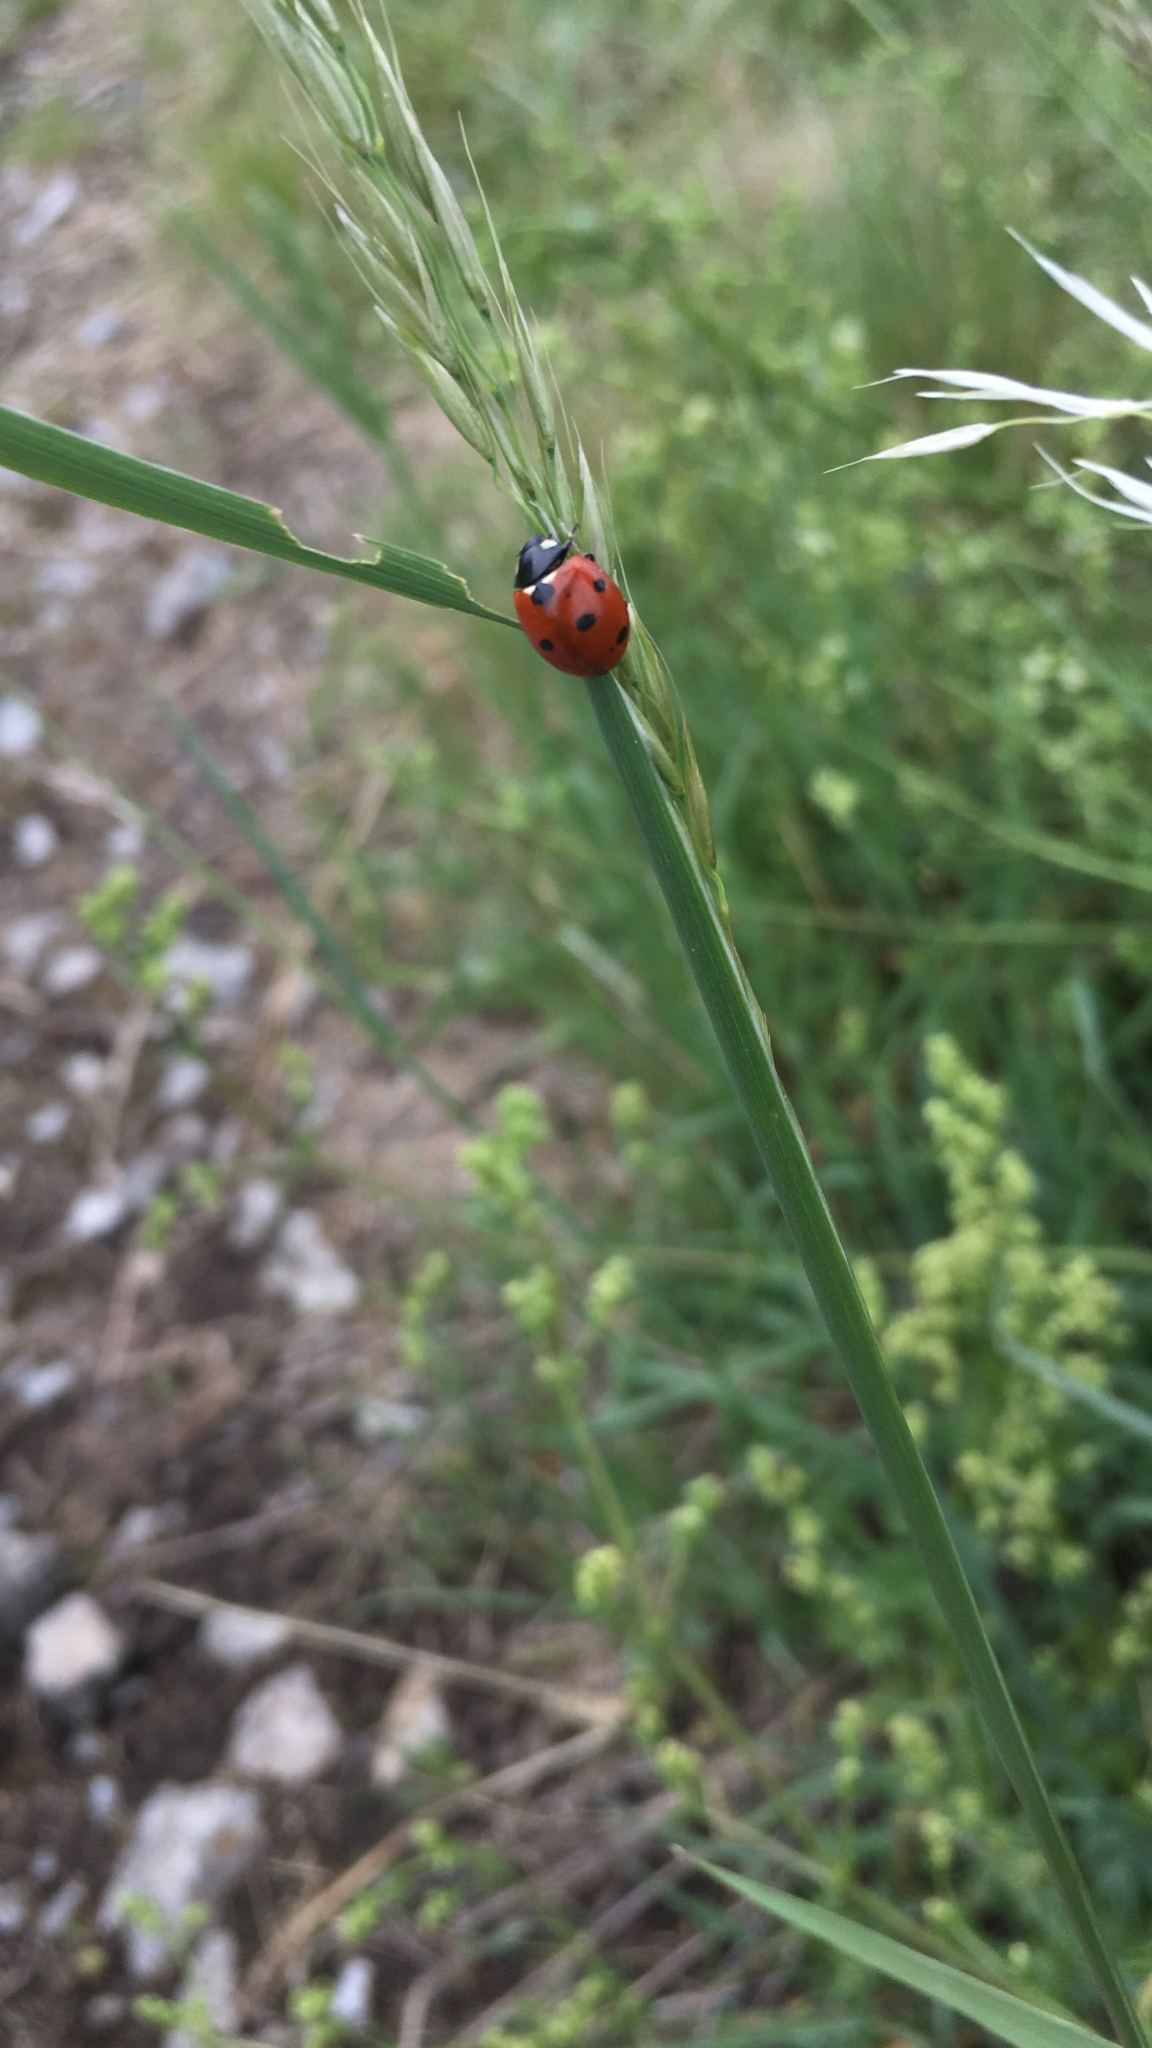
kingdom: Animalia
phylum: Arthropoda
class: Insecta
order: Coleoptera
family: Coccinellidae
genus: Coccinella
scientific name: Coccinella septempunctata
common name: Sevenspotted lady beetle
